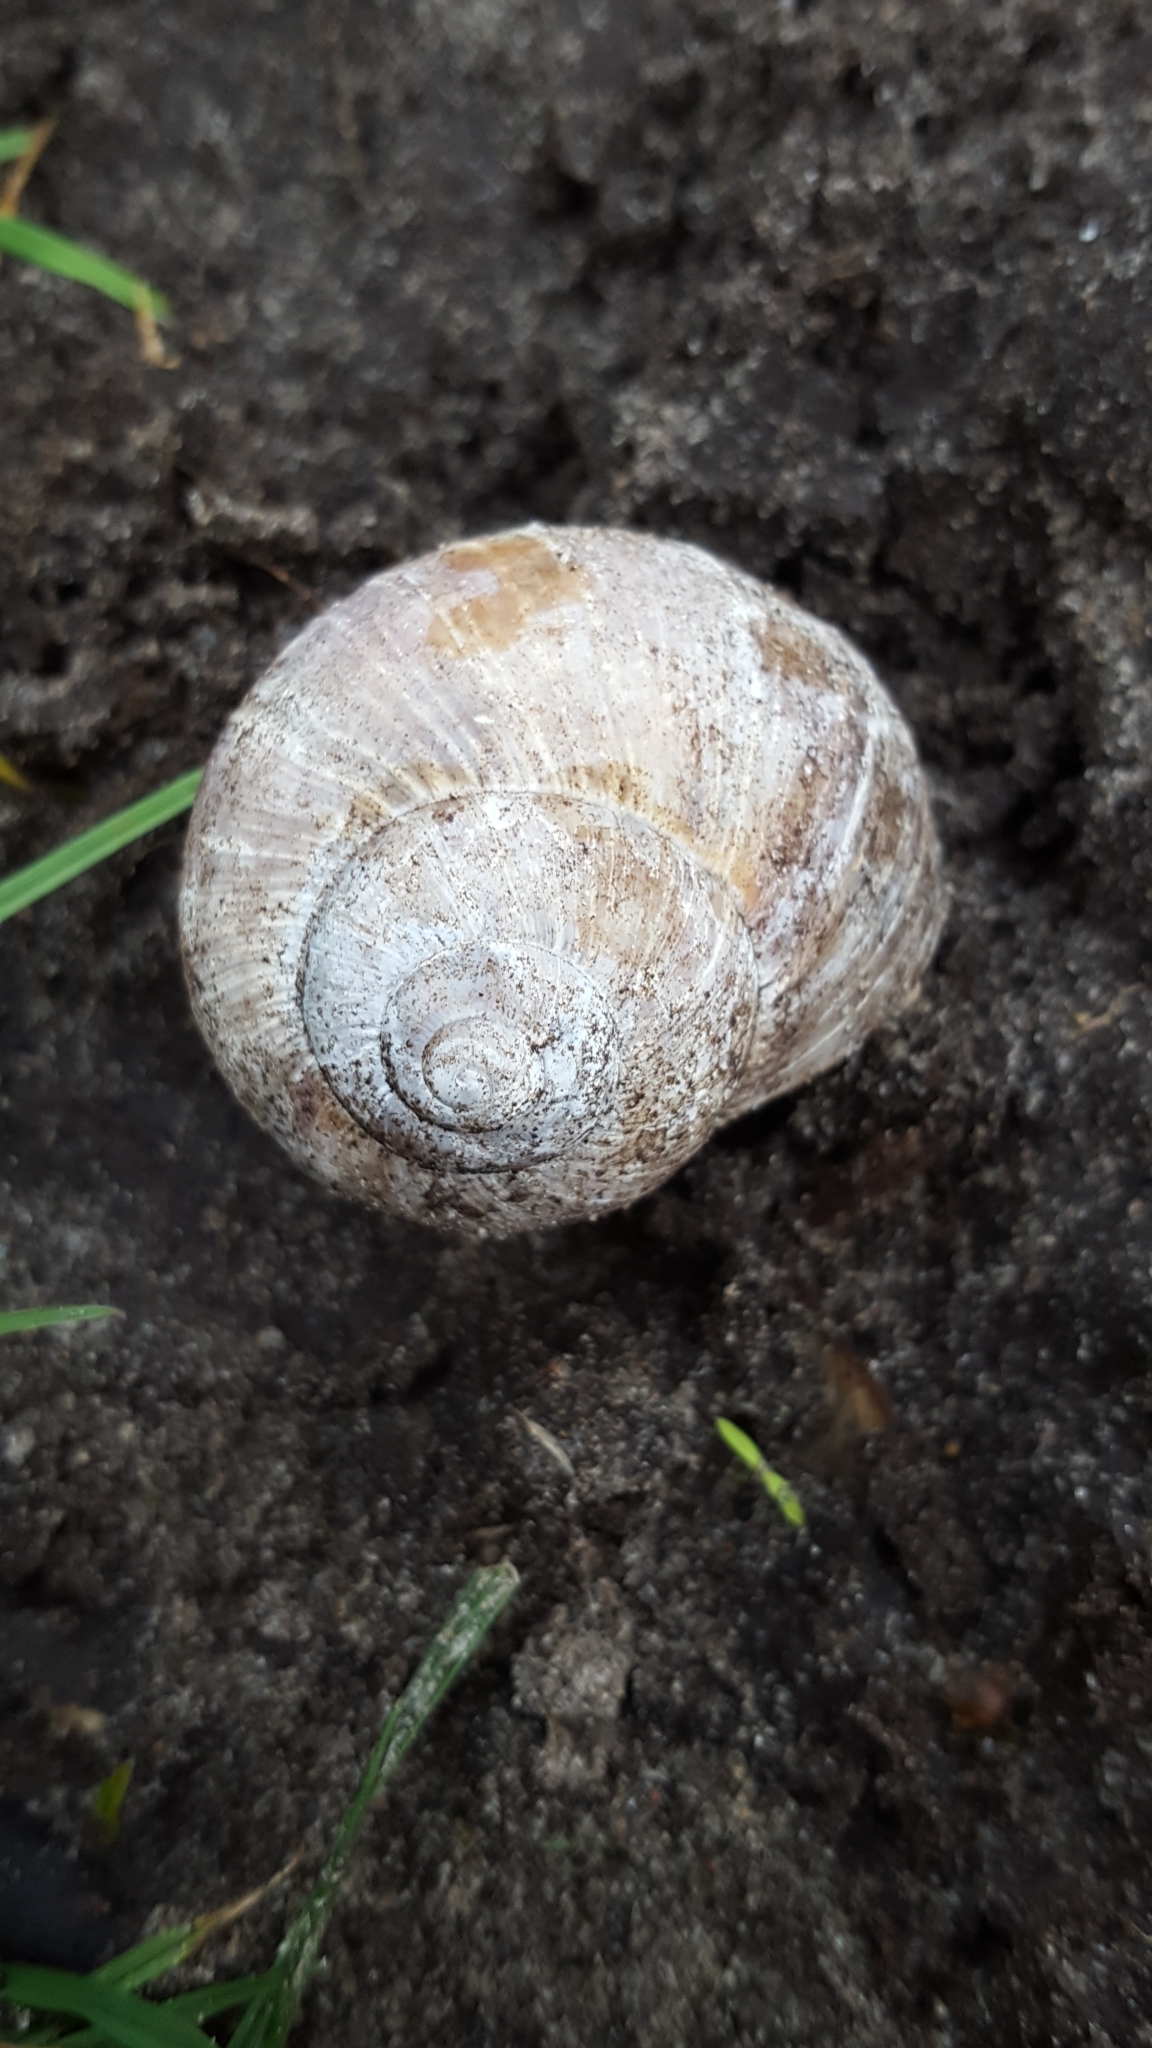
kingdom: Animalia
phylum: Mollusca
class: Gastropoda
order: Stylommatophora
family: Helicidae
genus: Helix
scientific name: Helix pomatia
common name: Roman snail
